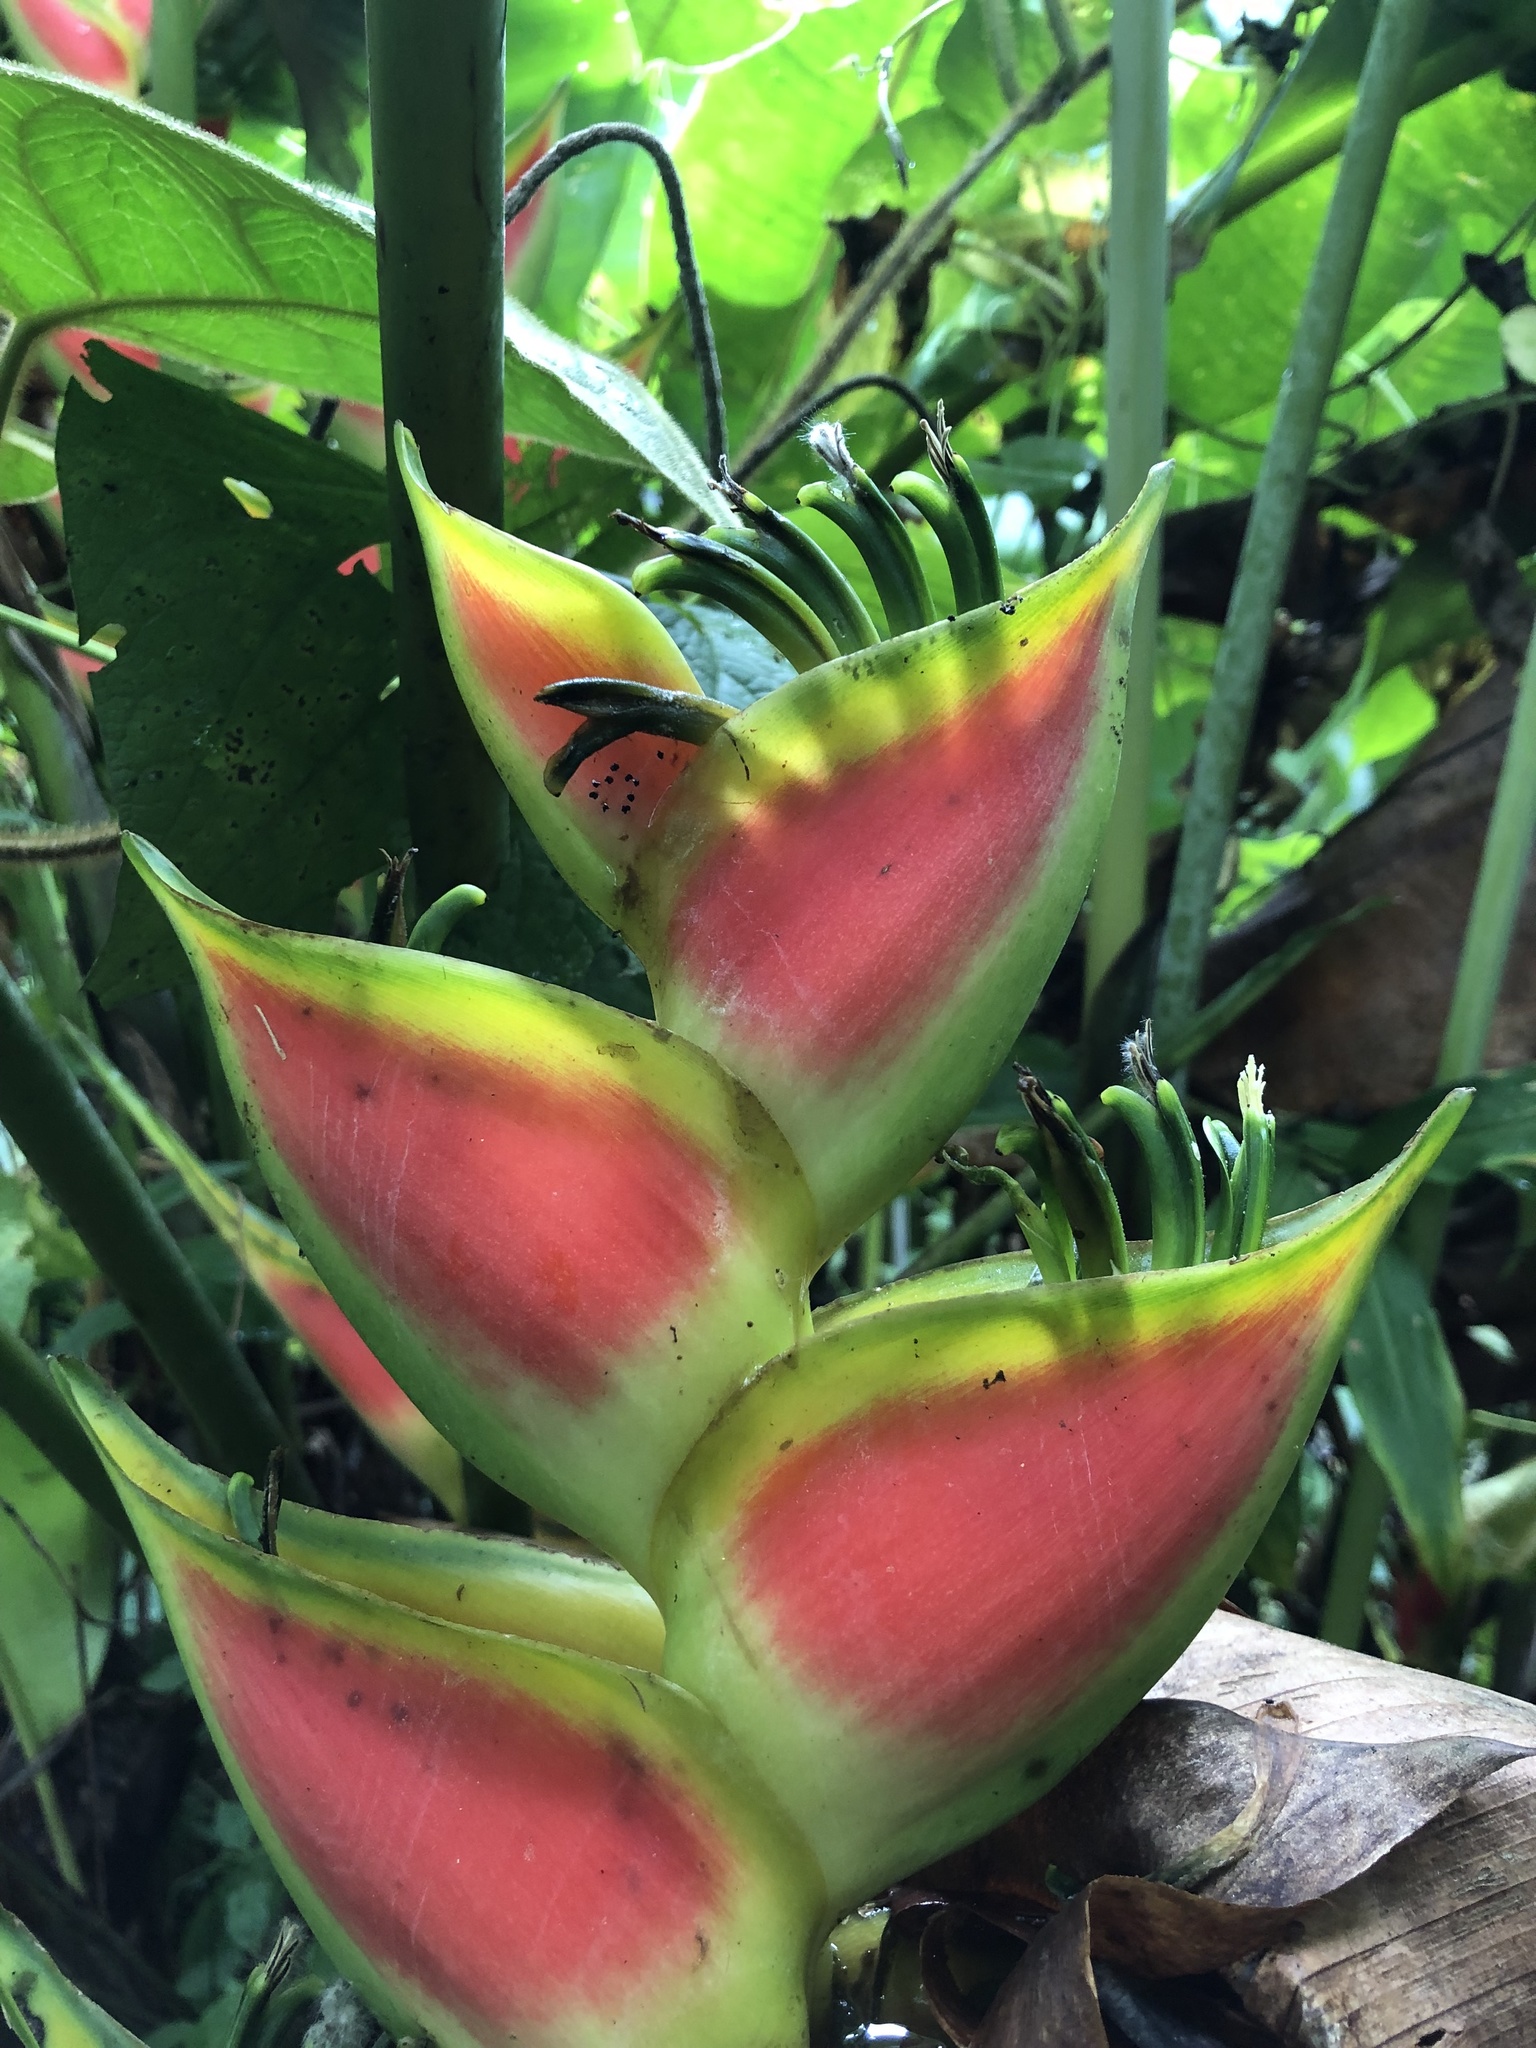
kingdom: Plantae
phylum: Tracheophyta
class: Liliopsida
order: Zingiberales
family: Heliconiaceae
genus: Heliconia
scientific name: Heliconia wagneriana
